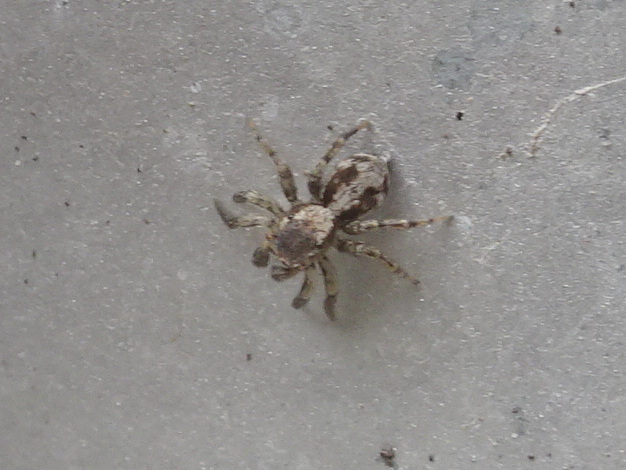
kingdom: Animalia
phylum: Arthropoda
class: Arachnida
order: Araneae
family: Salticidae
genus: Naphrys
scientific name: Naphrys pulex
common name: Flea jumping spider
